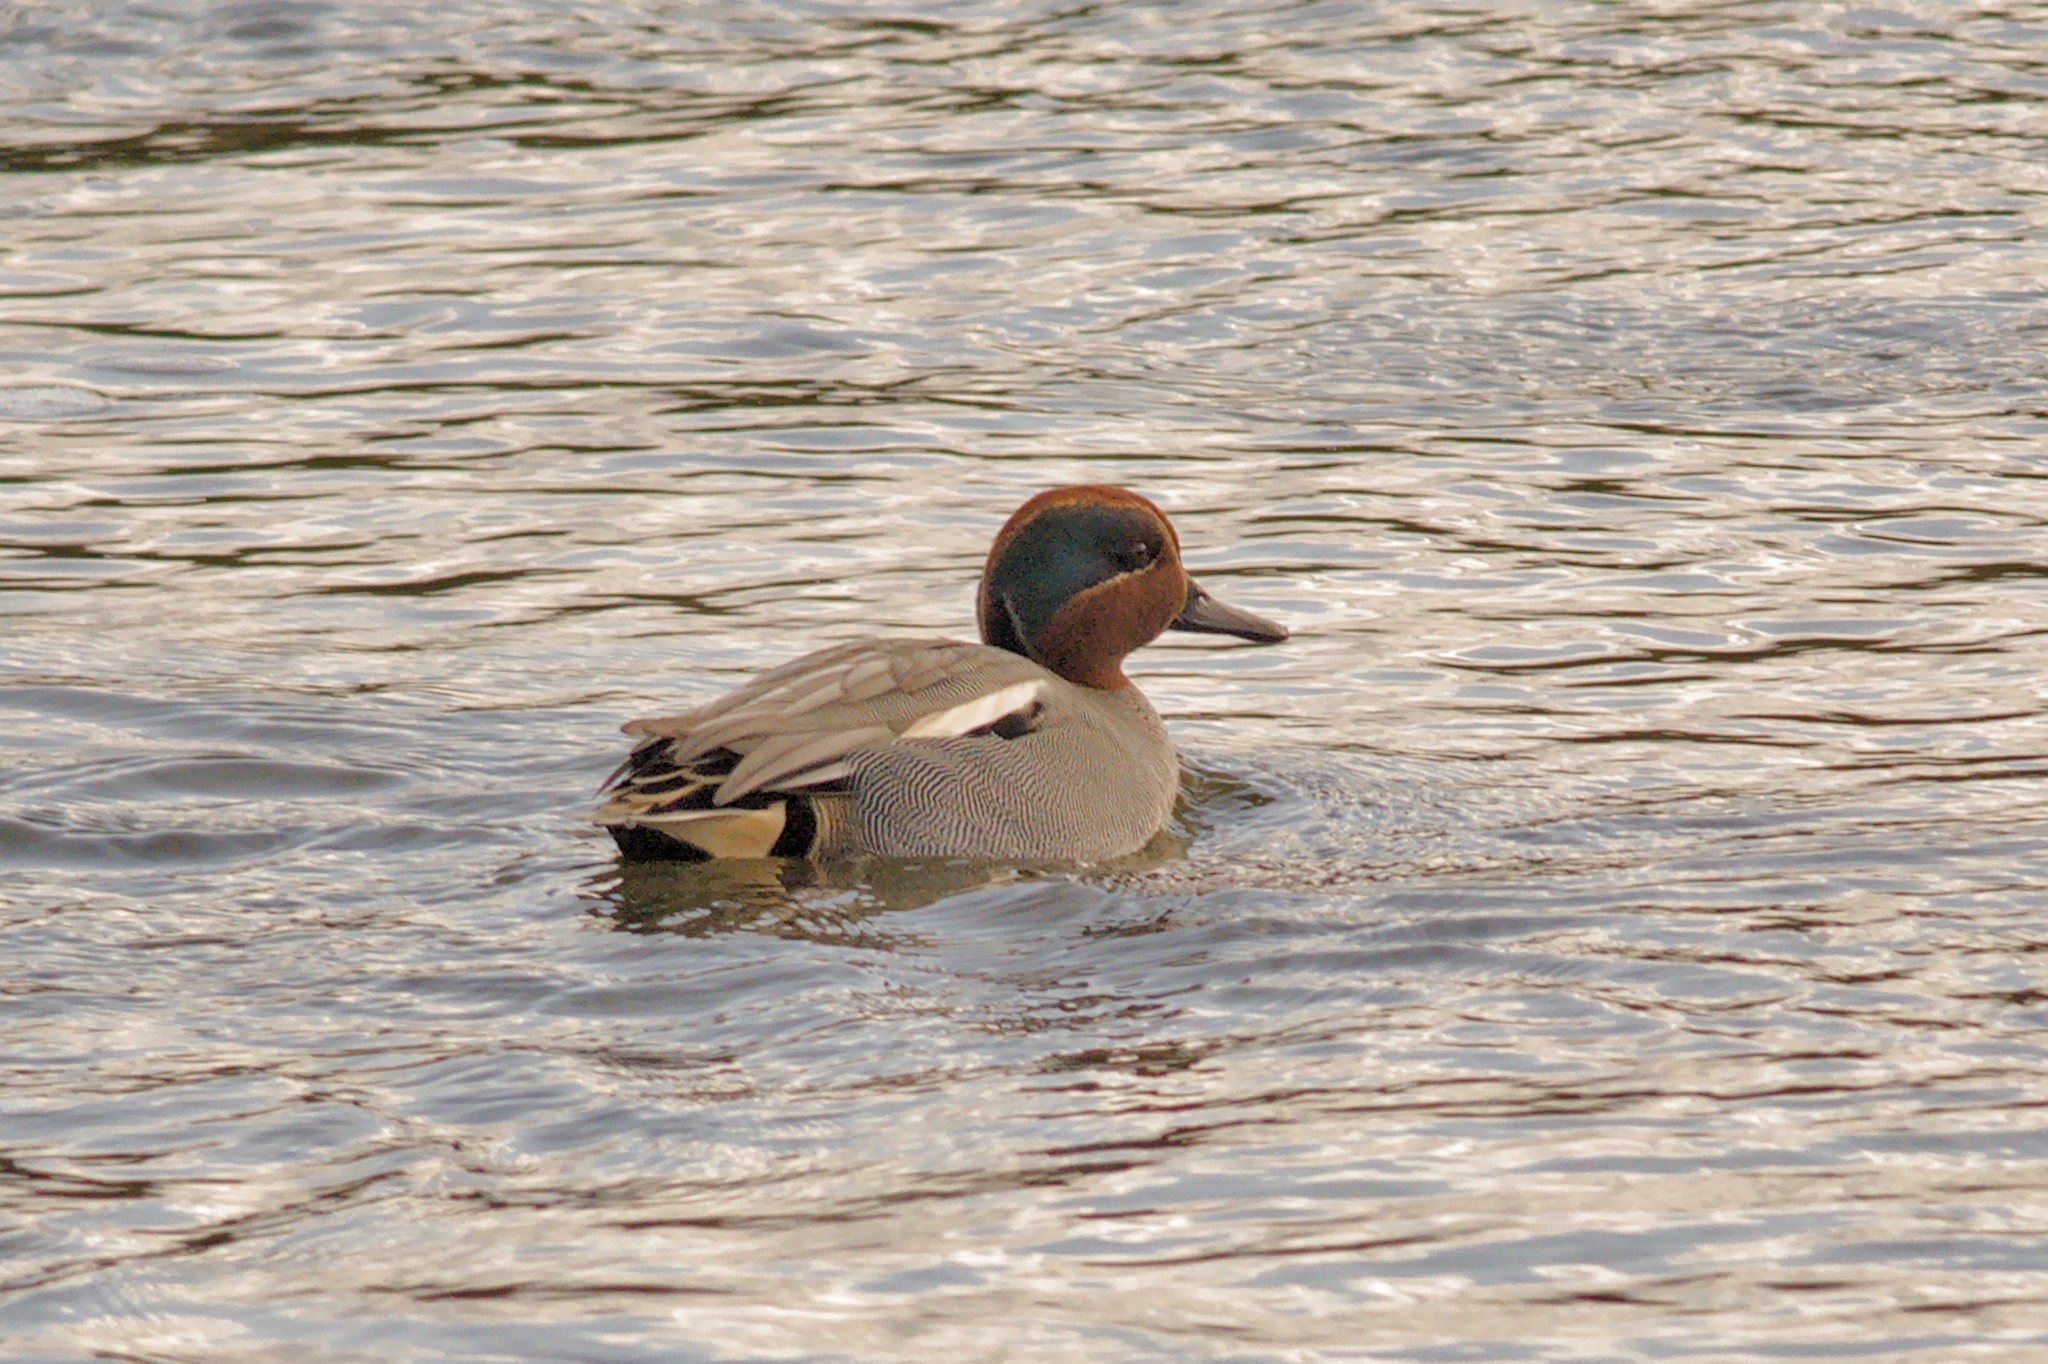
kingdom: Animalia
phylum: Chordata
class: Aves
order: Anseriformes
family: Anatidae
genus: Anas
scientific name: Anas crecca
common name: Eurasian teal
